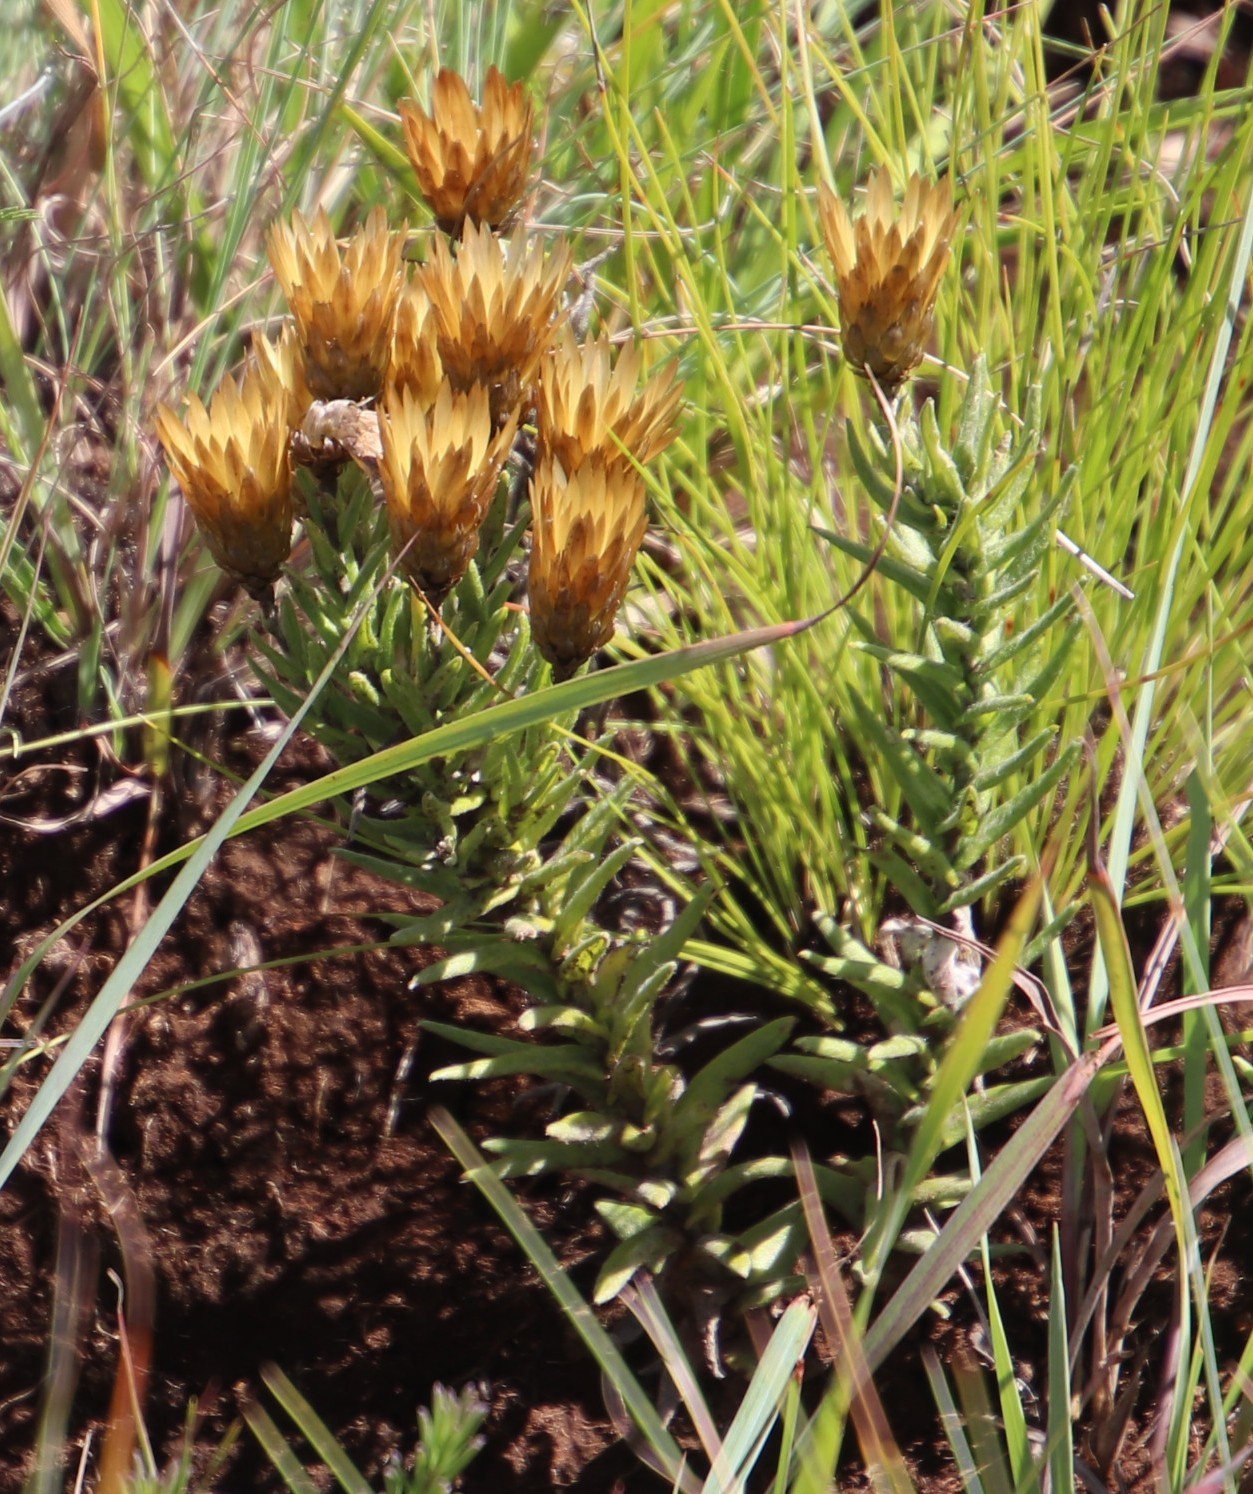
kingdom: Plantae
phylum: Tracheophyta
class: Magnoliopsida
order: Asterales
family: Asteraceae
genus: Helichrysum
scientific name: Helichrysum herbaceum
